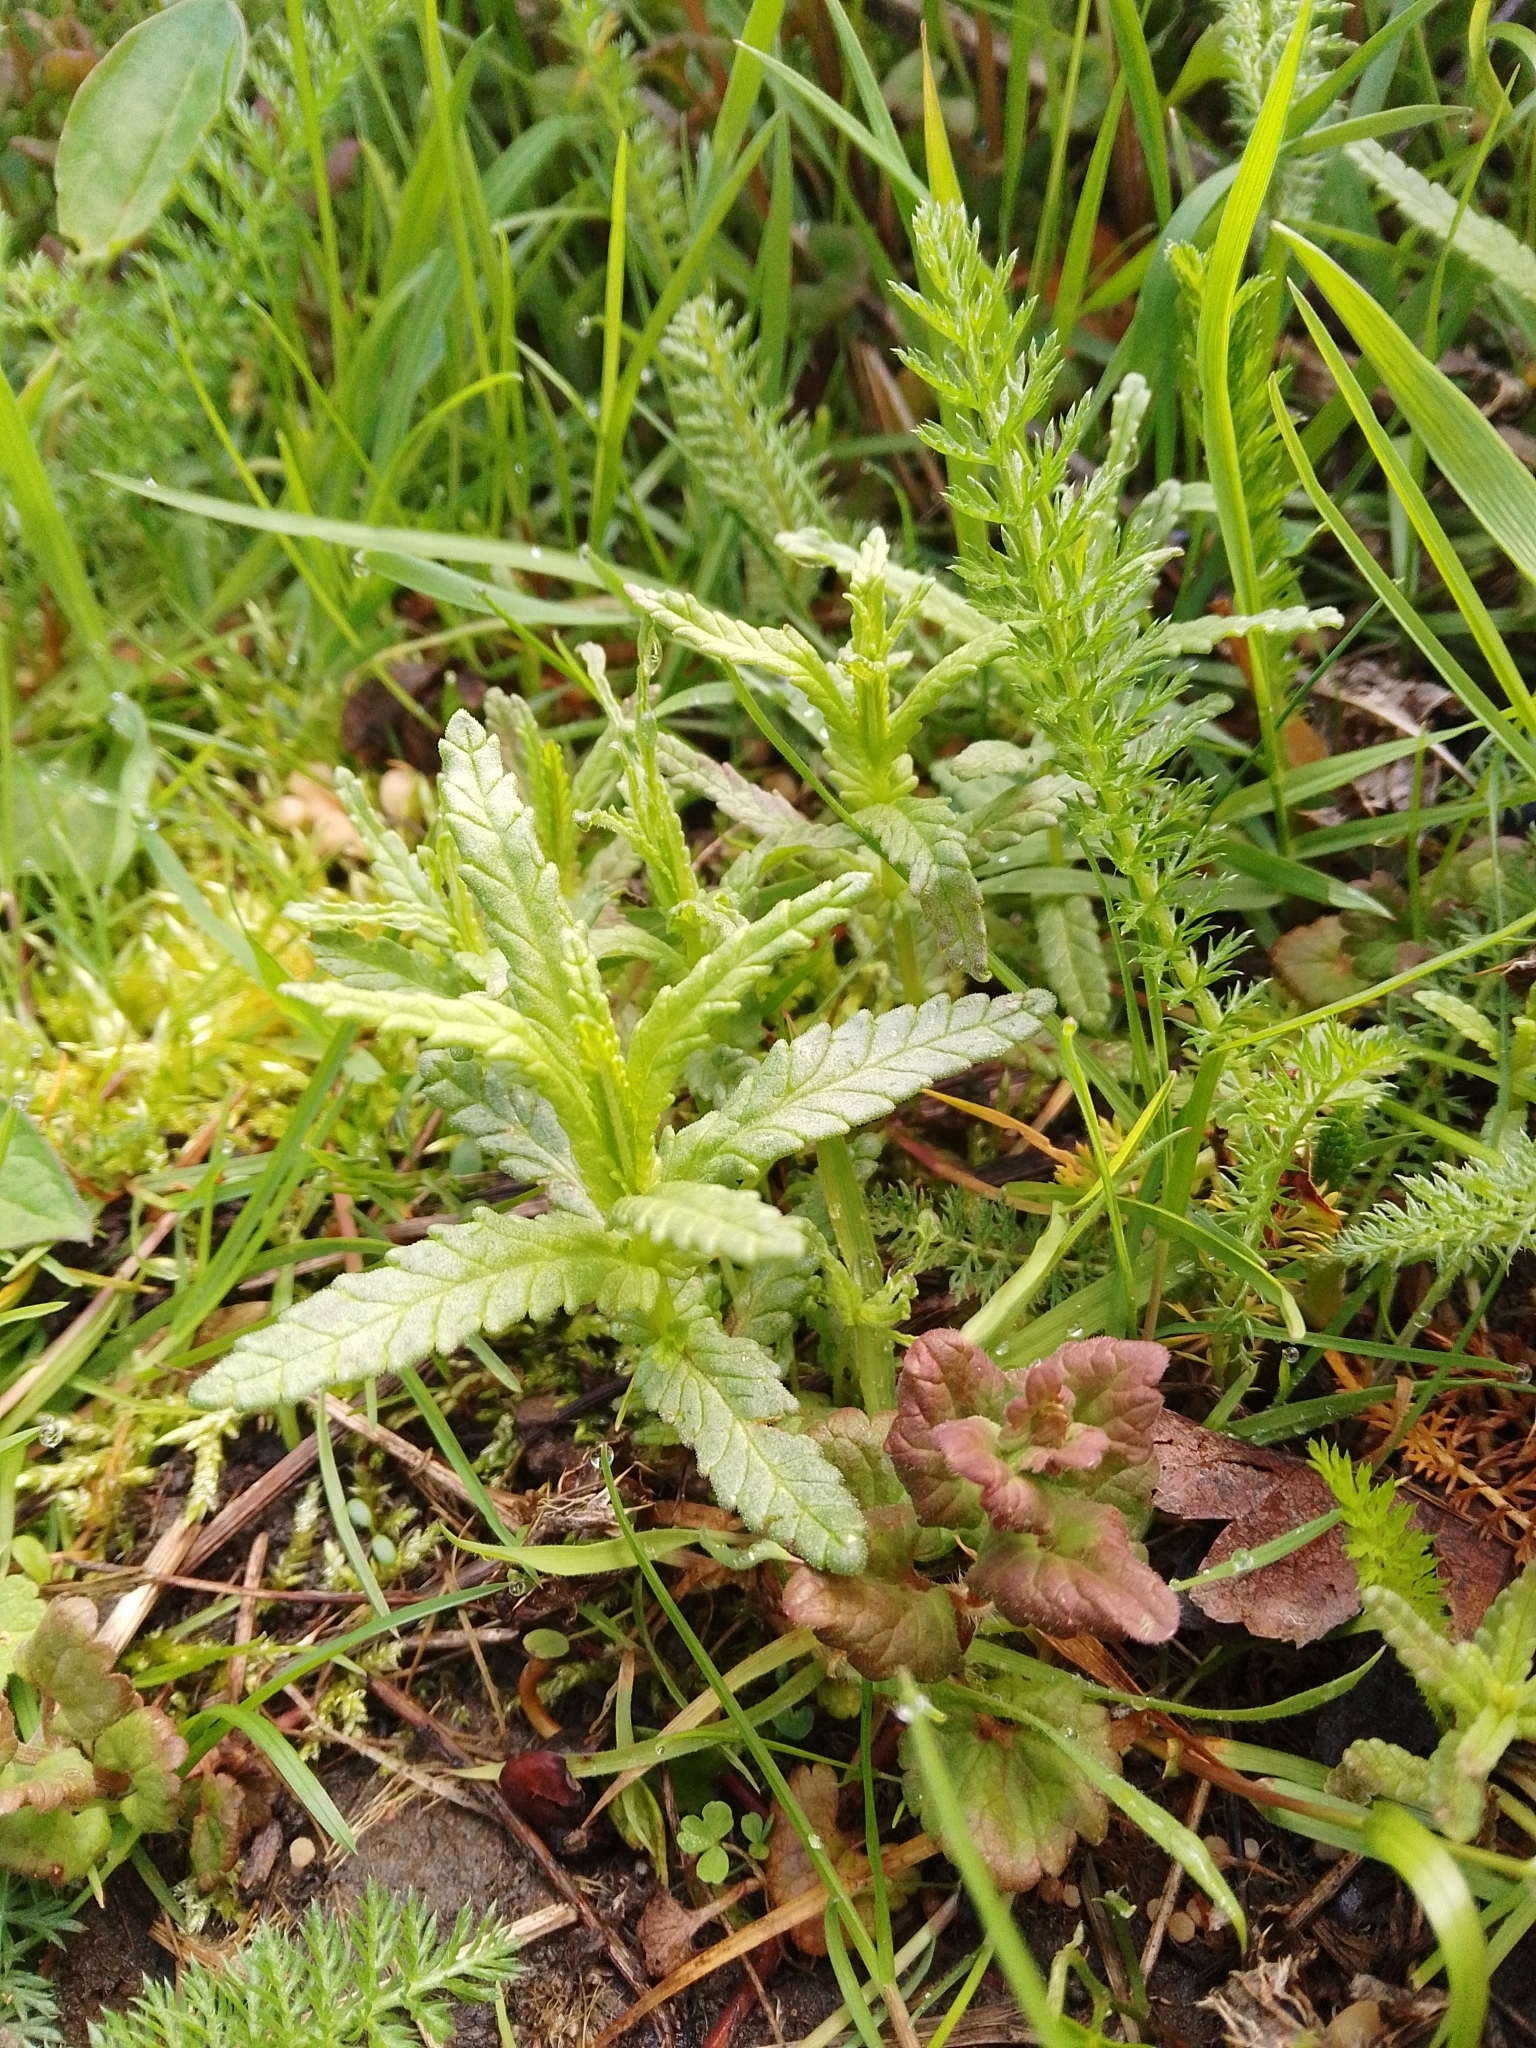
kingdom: Plantae
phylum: Tracheophyta
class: Magnoliopsida
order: Lamiales
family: Orobanchaceae
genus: Rhinanthus
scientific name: Rhinanthus minor
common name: Yellow-rattle
